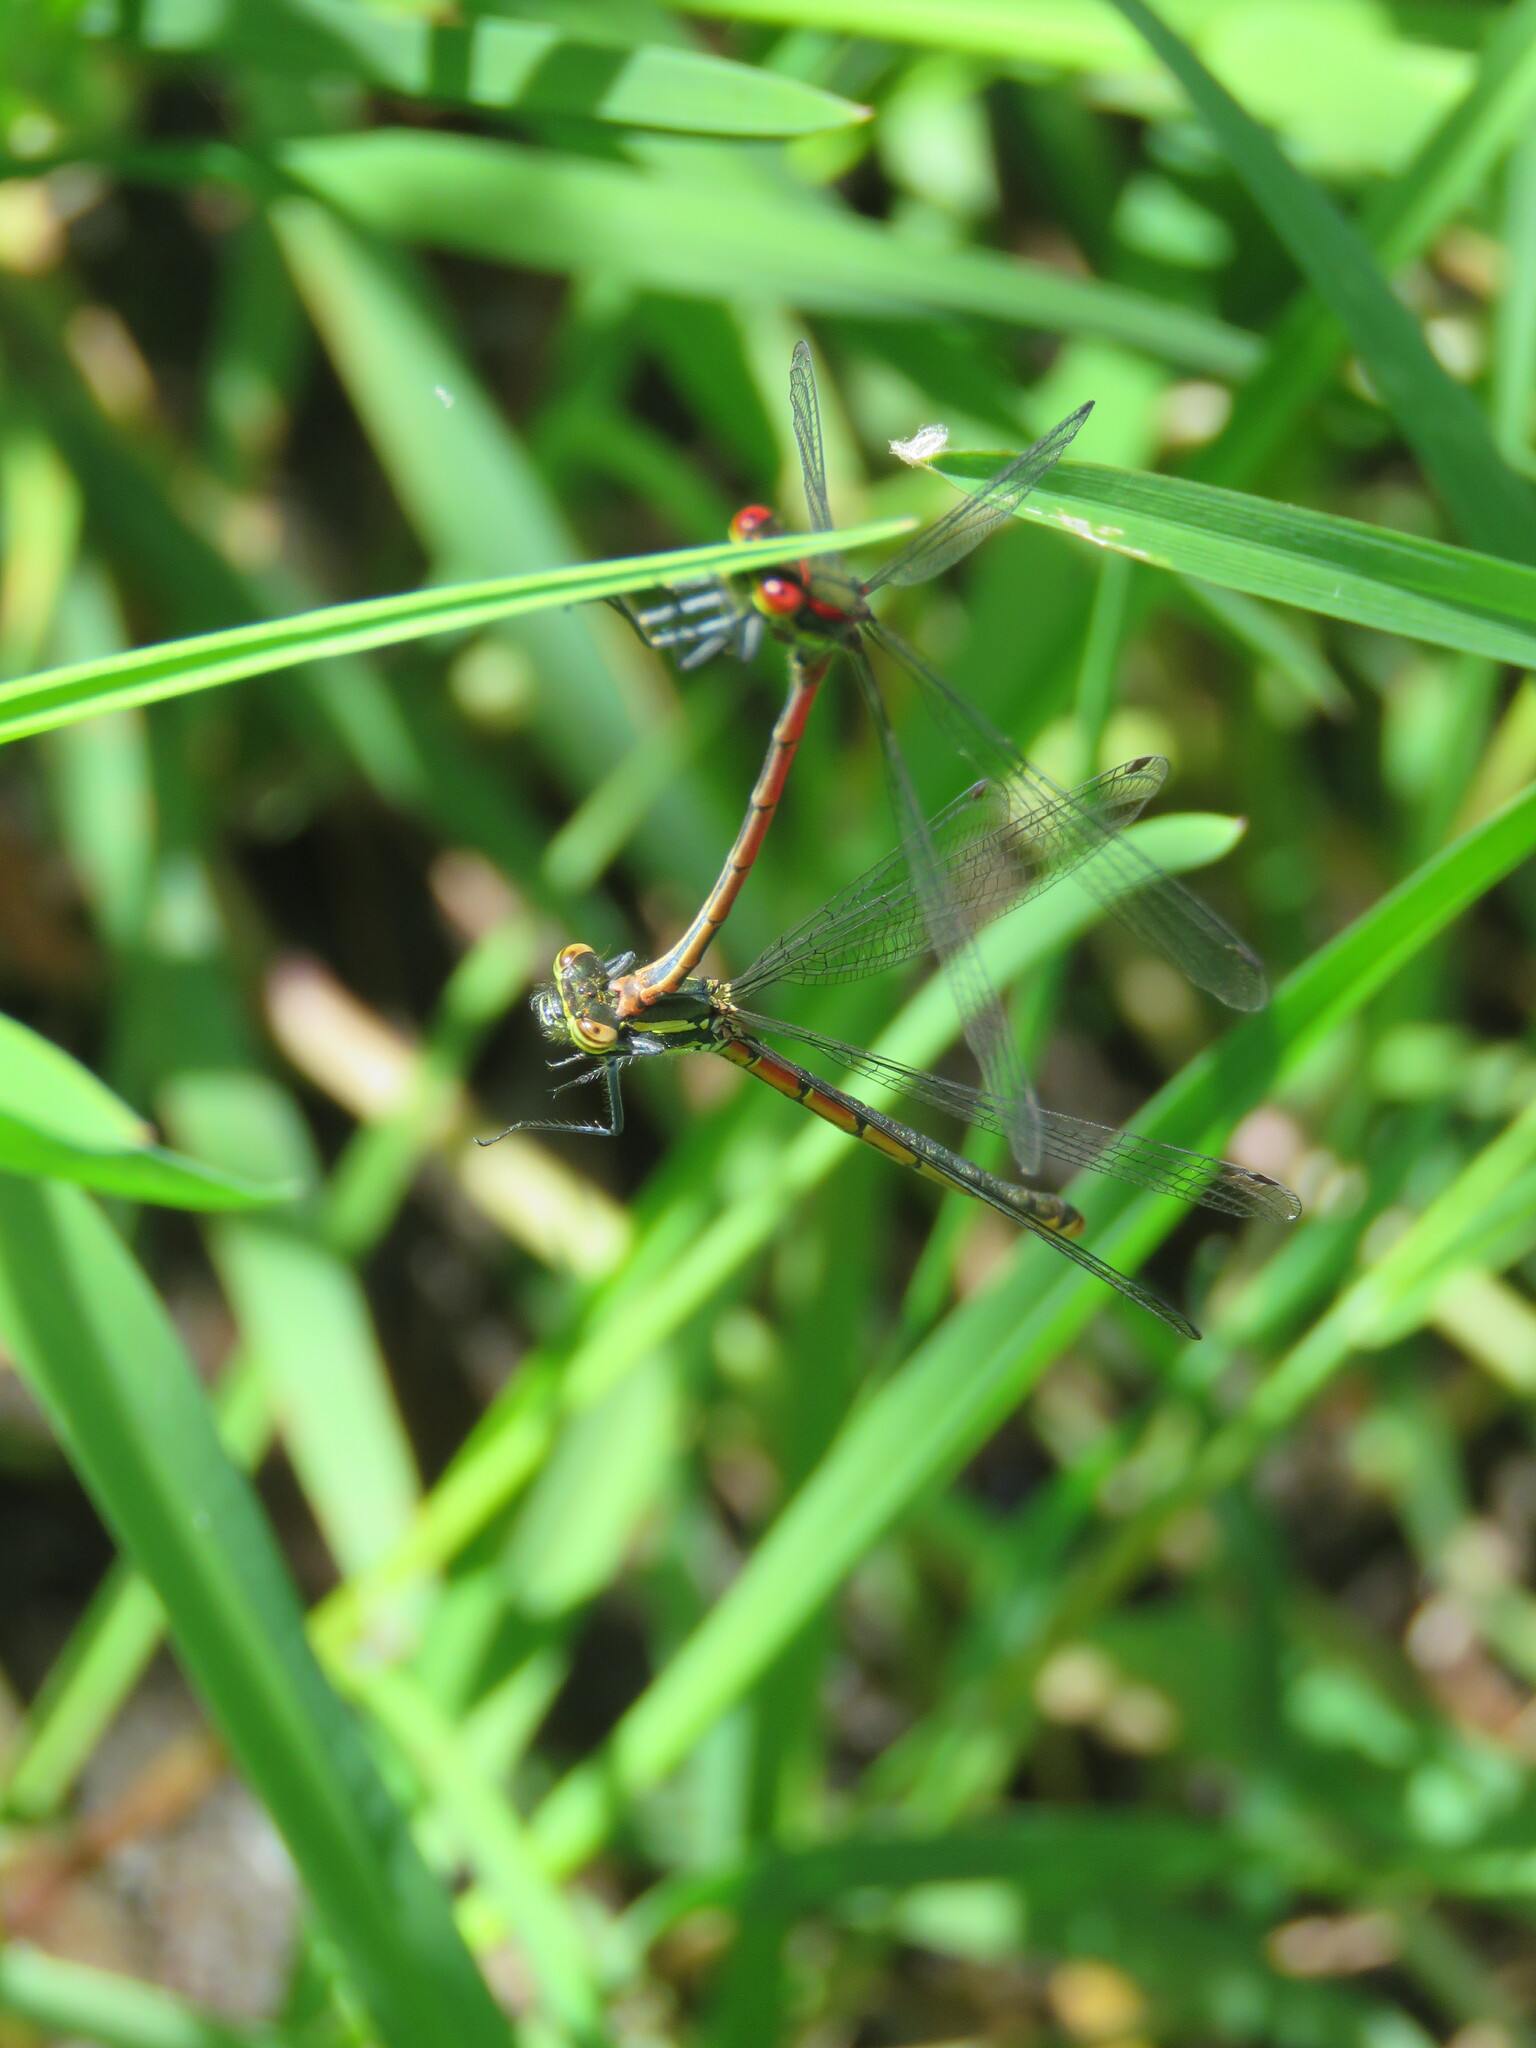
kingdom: Animalia
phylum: Arthropoda
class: Insecta
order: Odonata
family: Coenagrionidae
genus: Pyrrhosoma
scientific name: Pyrrhosoma nymphula
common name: Large red damsel
